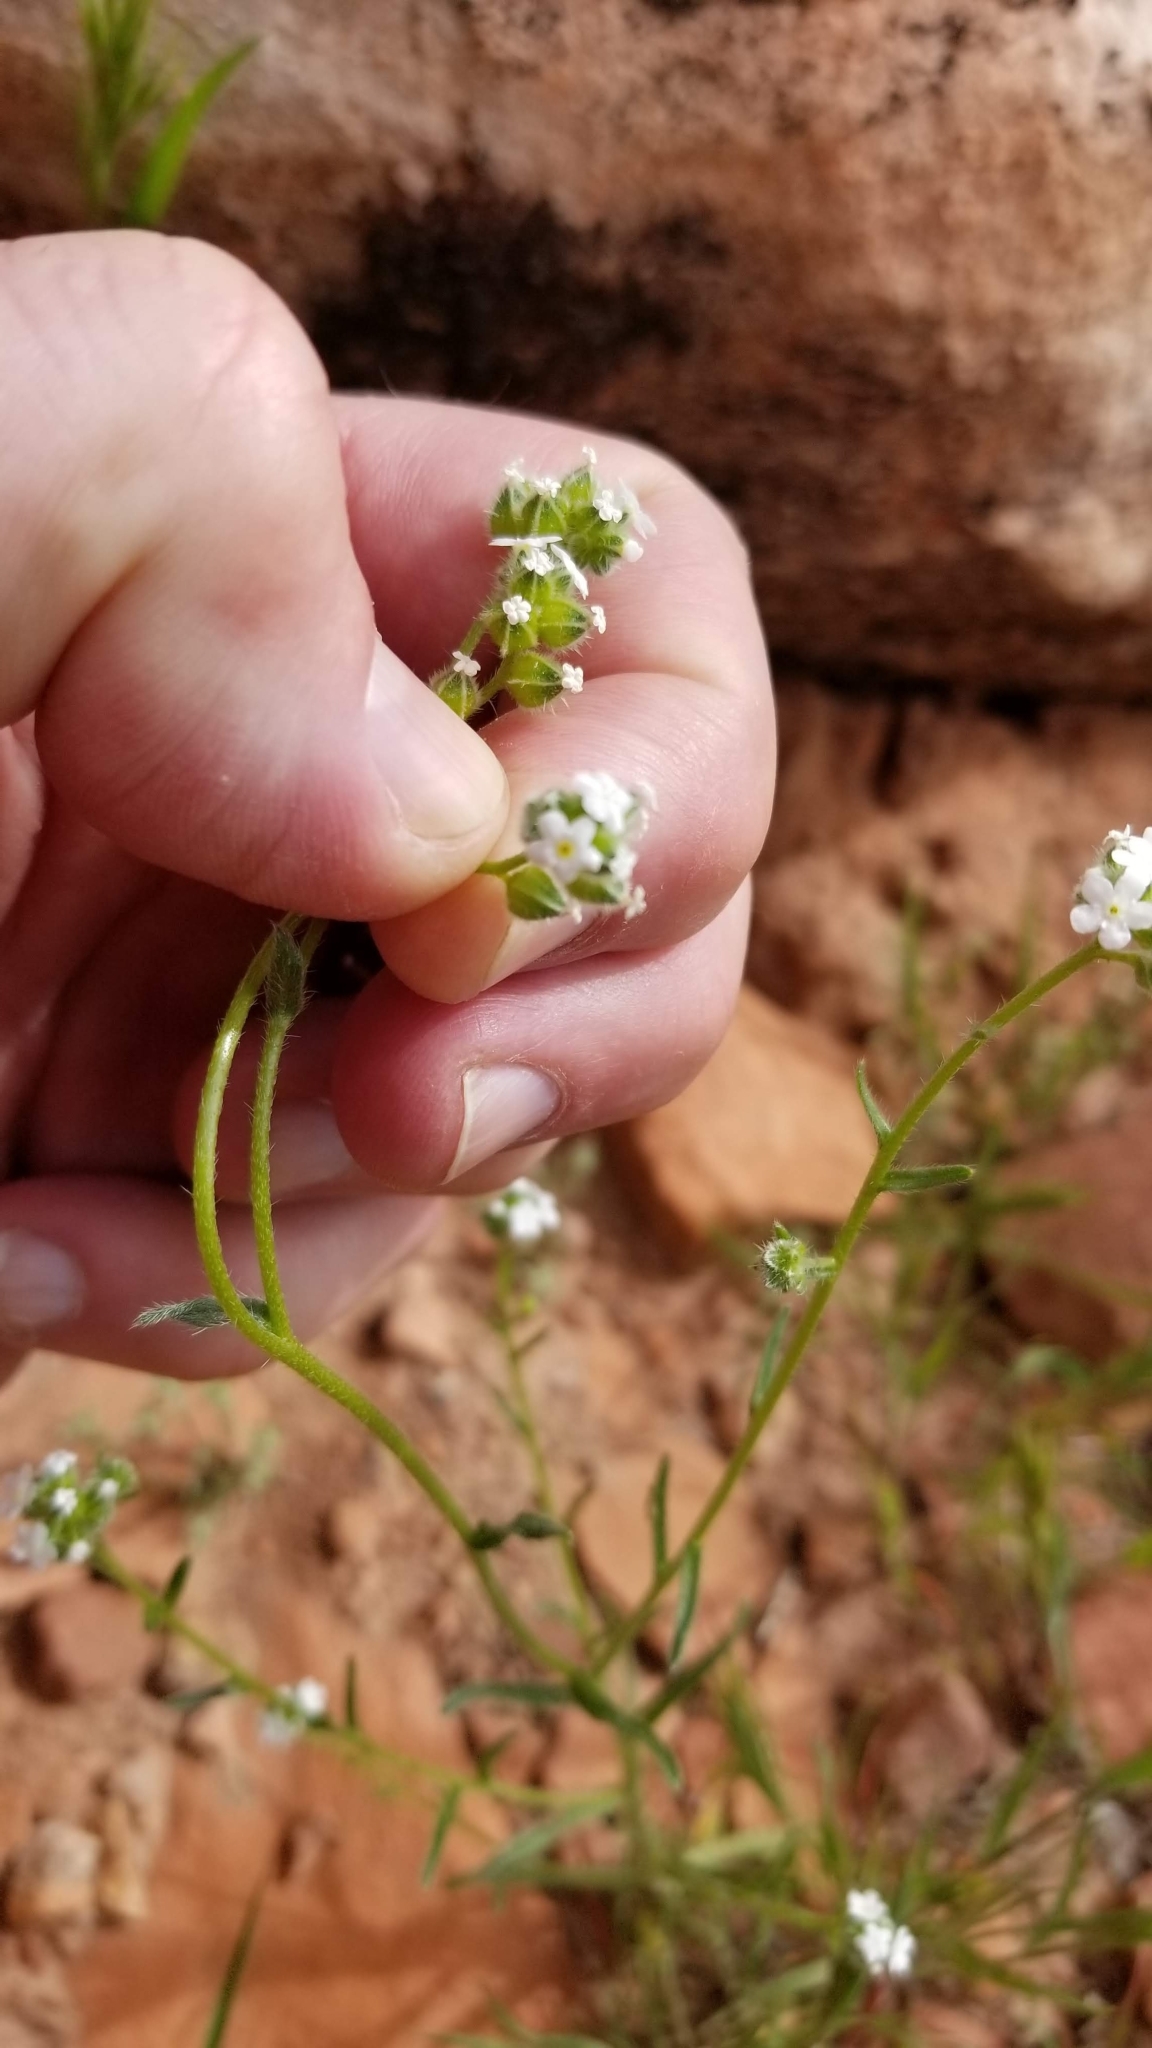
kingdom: Plantae
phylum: Tracheophyta
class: Magnoliopsida
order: Boraginales
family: Boraginaceae
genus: Cryptantha
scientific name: Cryptantha pterocarya
